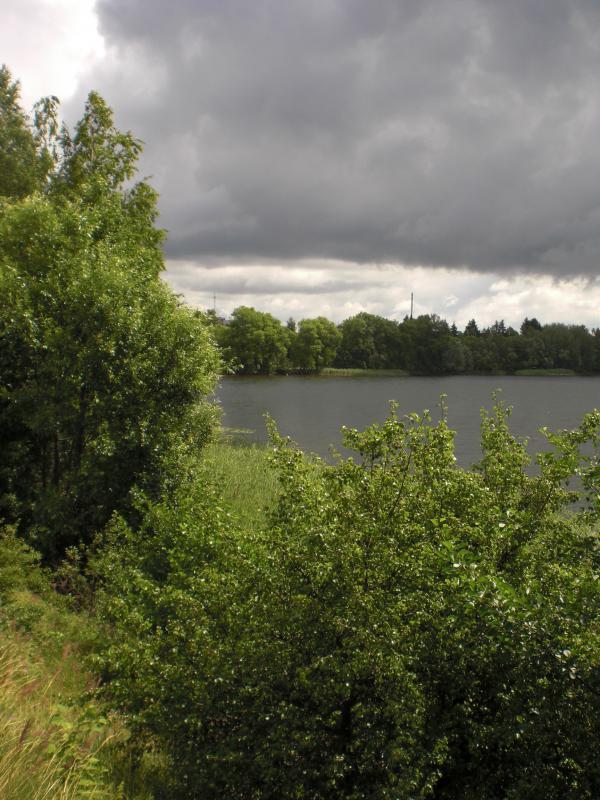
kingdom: Animalia
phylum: Chordata
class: Mammalia
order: Rodentia
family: Castoridae
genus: Castor
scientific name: Castor fiber
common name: Eurasian beaver
